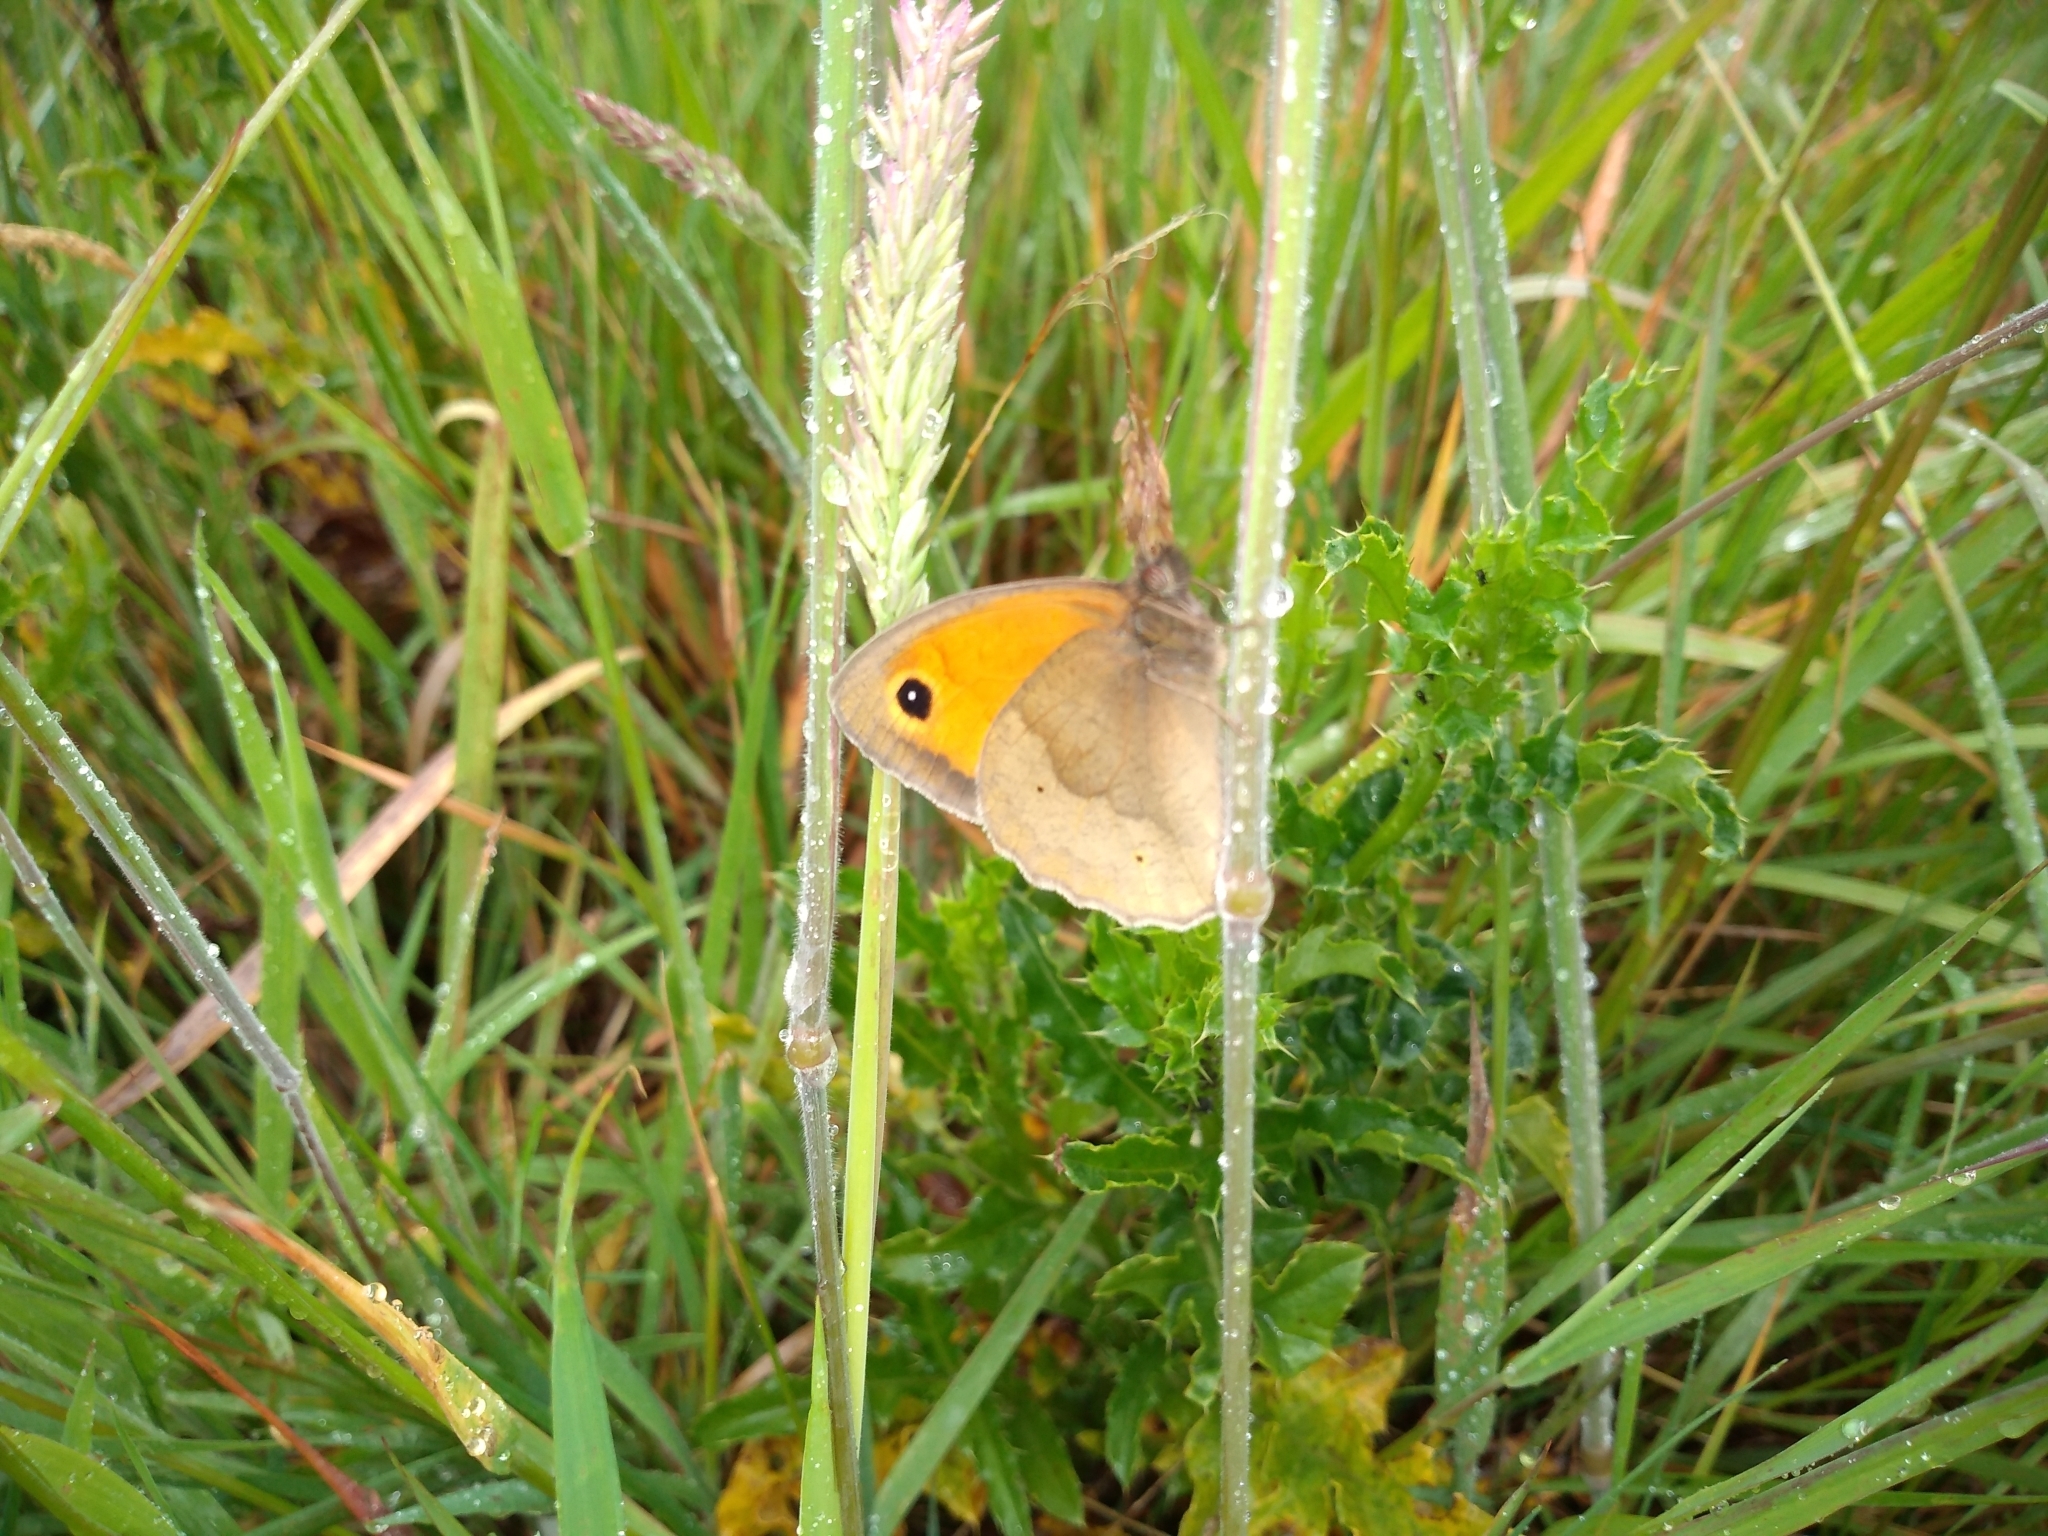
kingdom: Animalia
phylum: Arthropoda
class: Insecta
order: Lepidoptera
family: Nymphalidae
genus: Maniola
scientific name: Maniola jurtina
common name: Meadow brown
